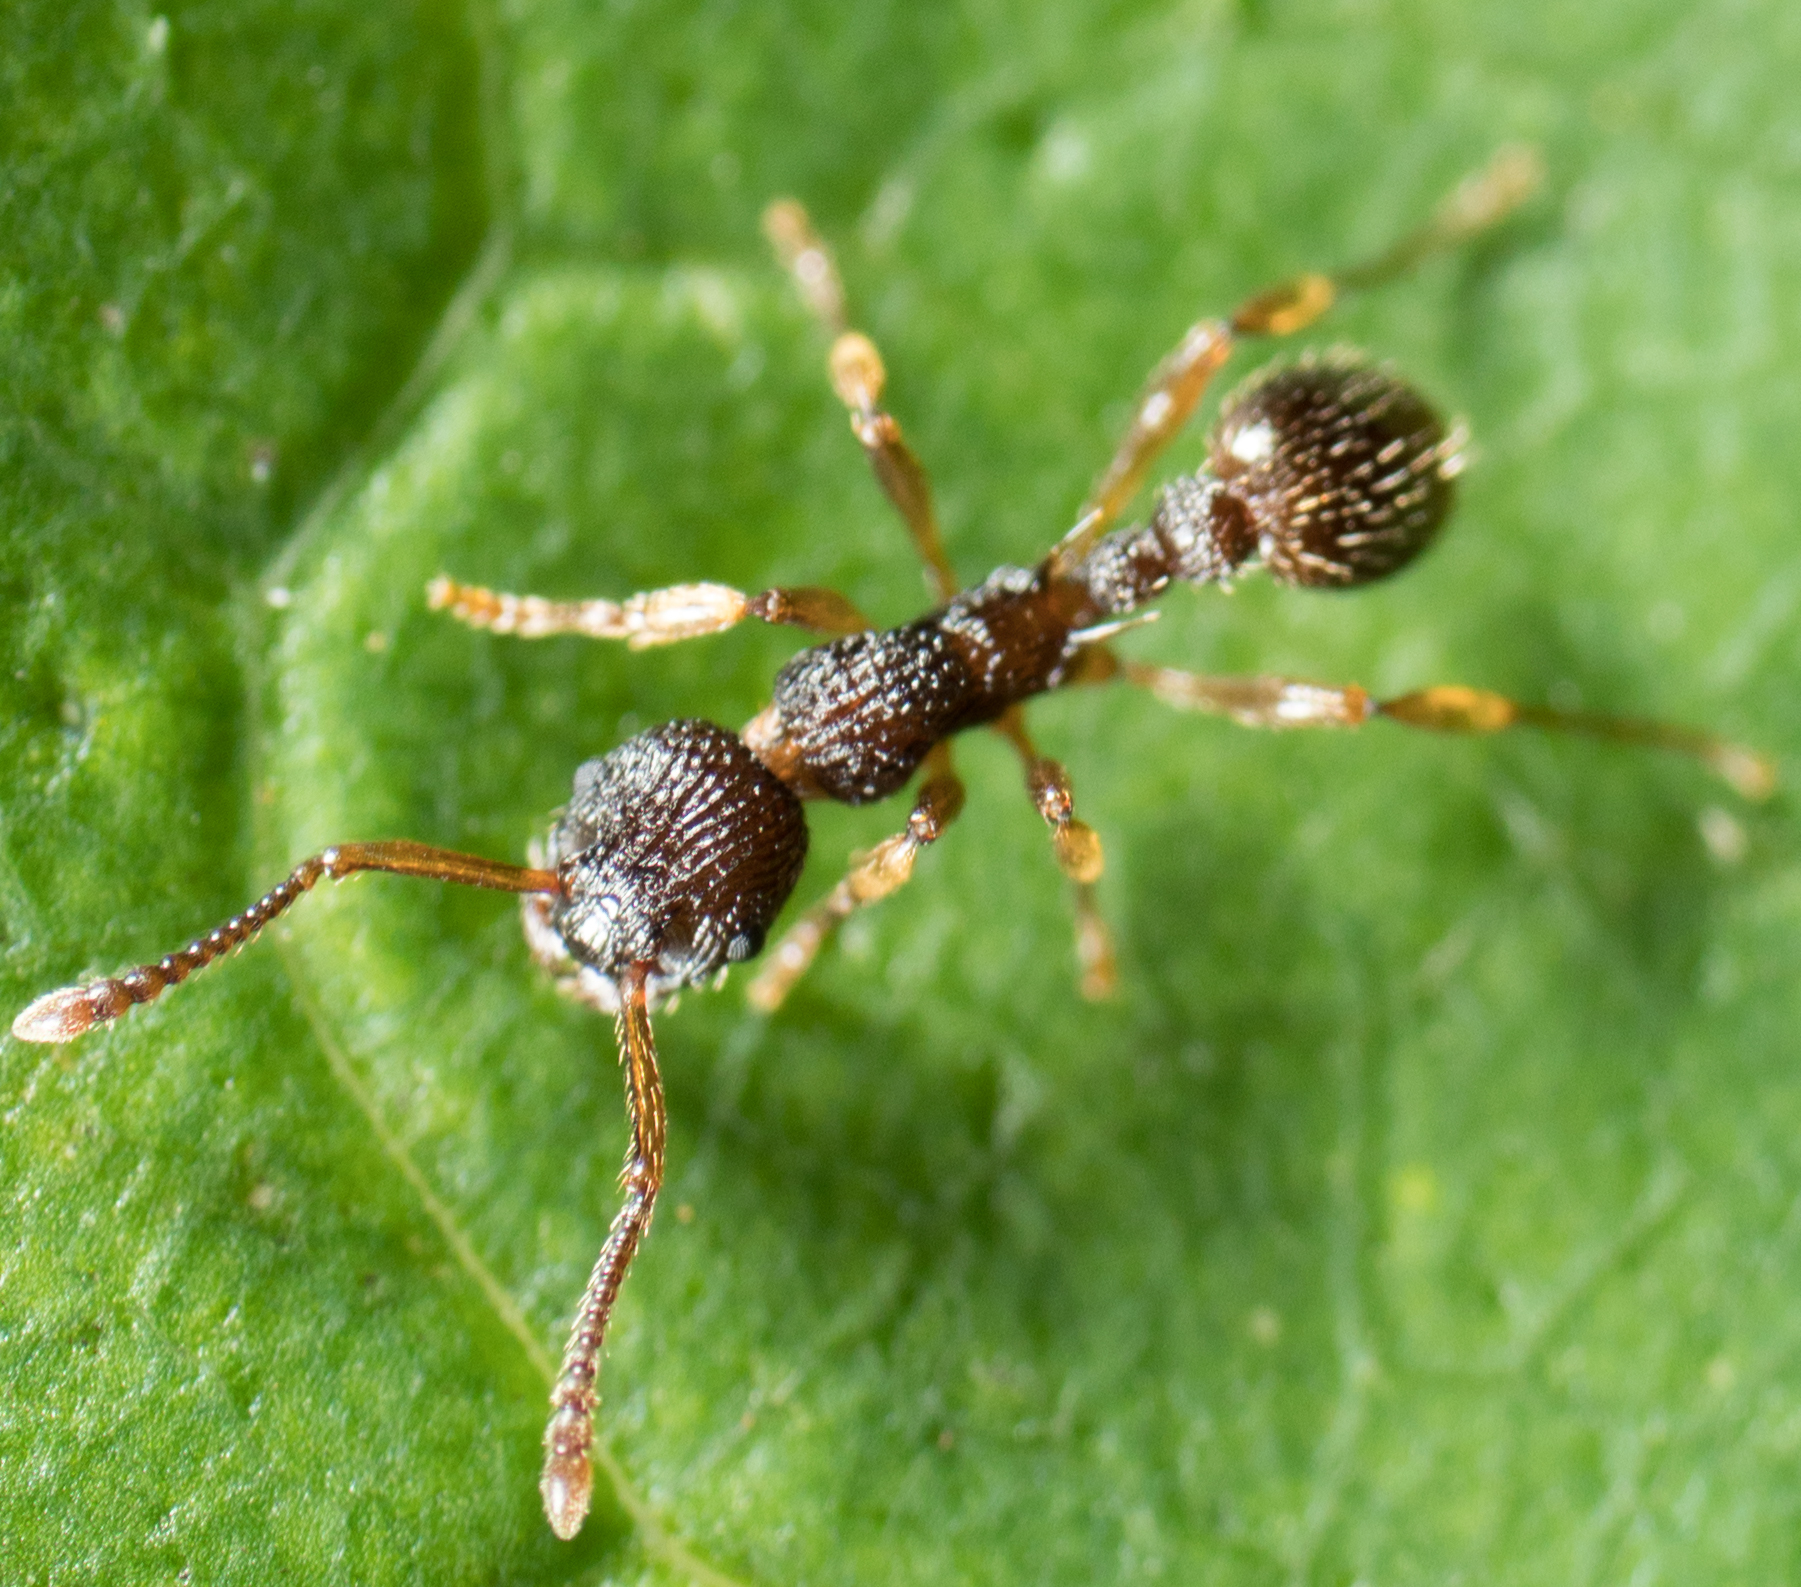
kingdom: Animalia
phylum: Arthropoda
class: Insecta
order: Hymenoptera
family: Formicidae
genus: Myrmica
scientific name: Myrmica punctiventris
